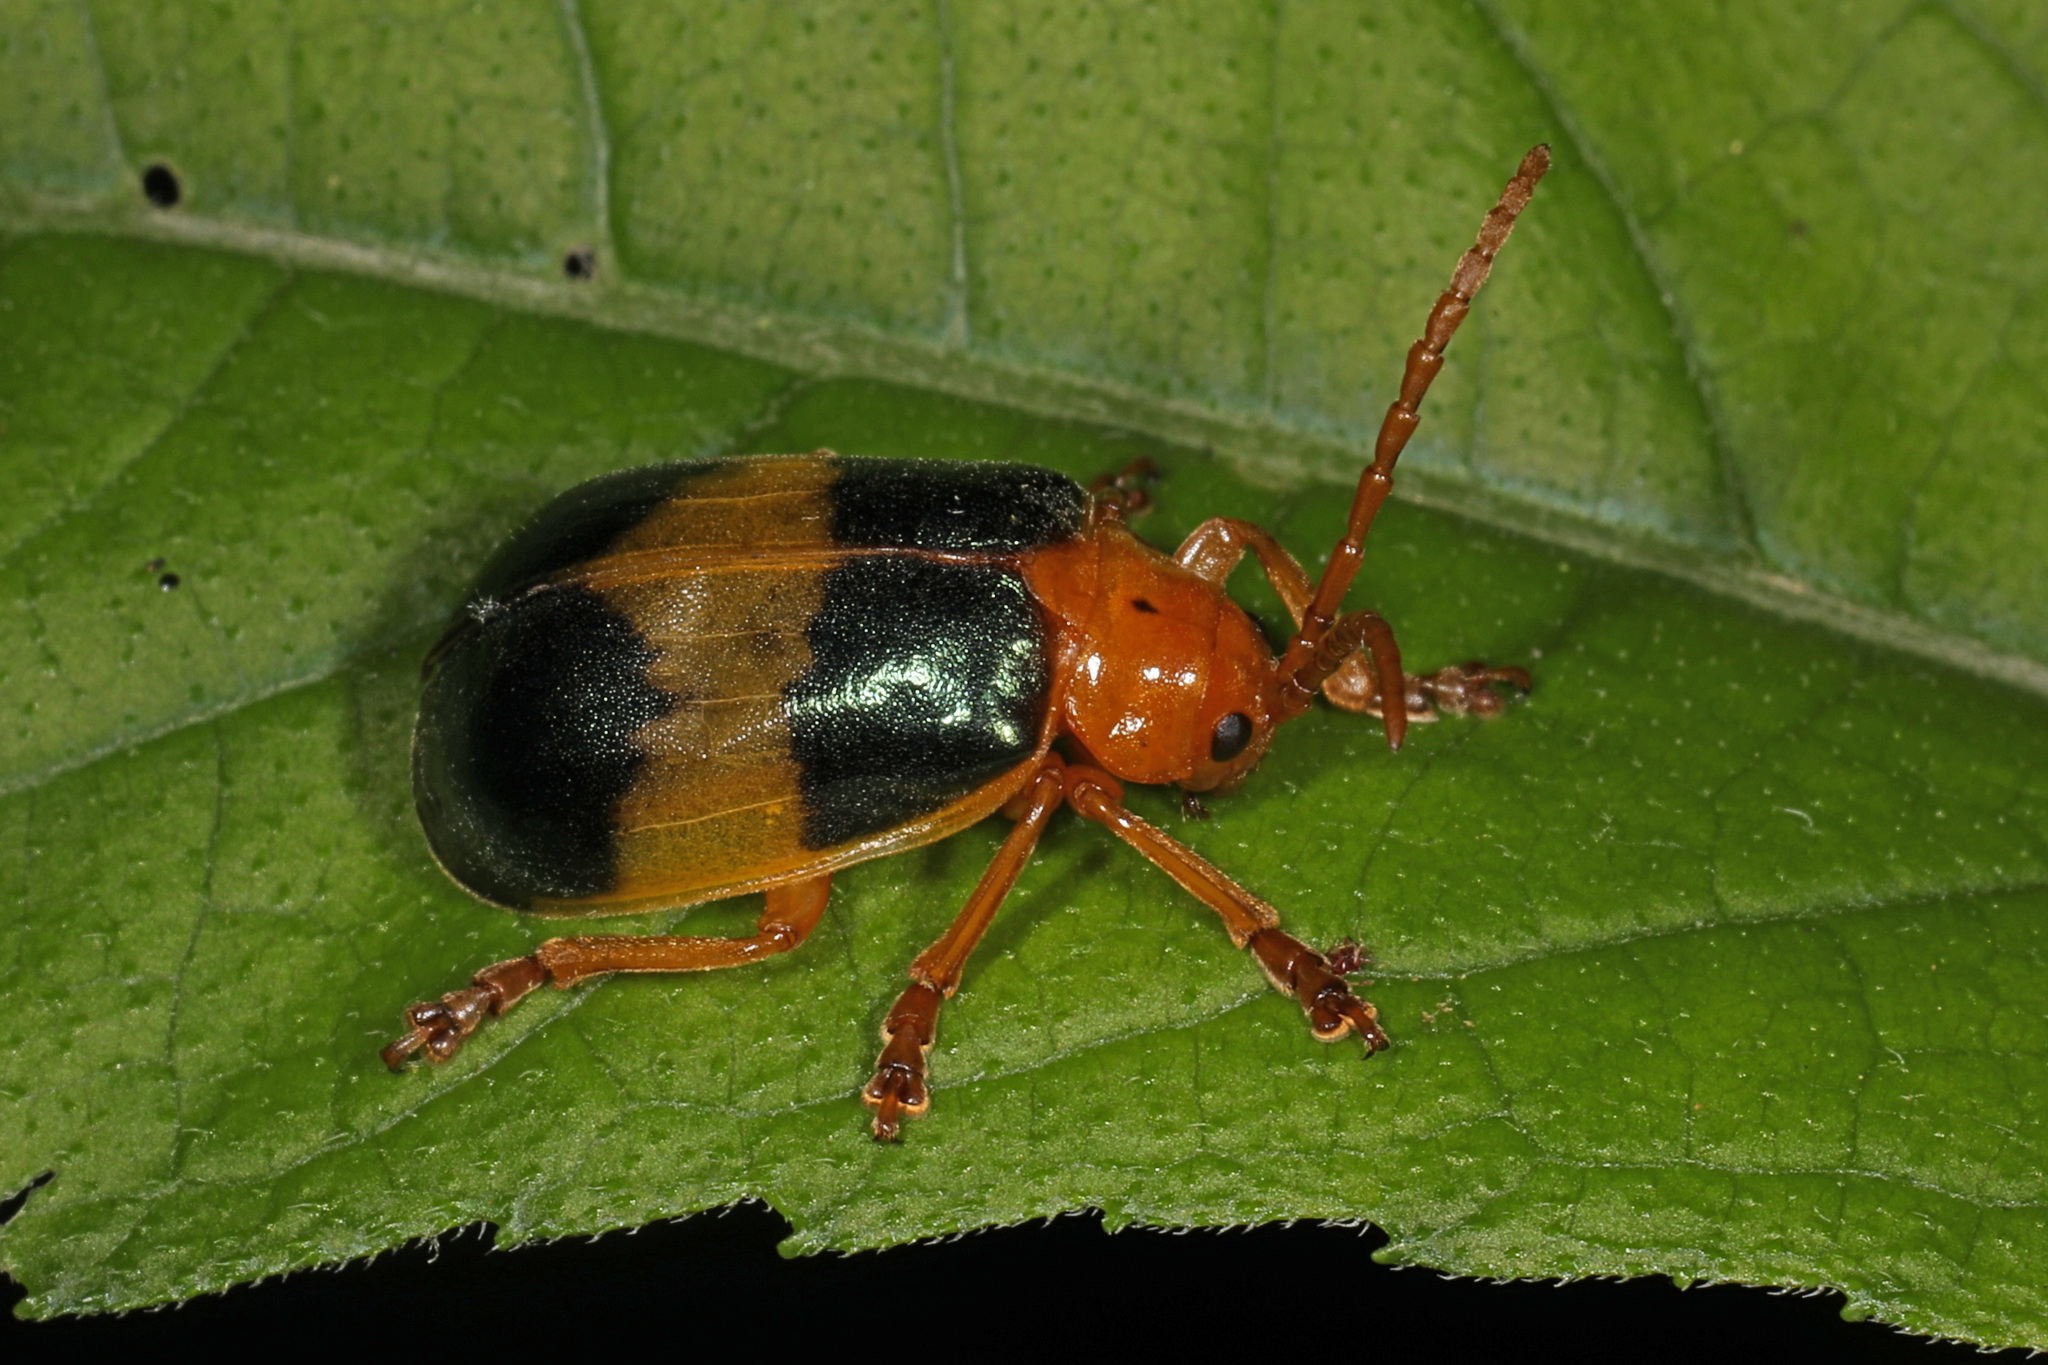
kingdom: Animalia
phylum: Arthropoda
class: Insecta
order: Coleoptera
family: Chrysomelidae
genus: Monocesta
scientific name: Monocesta coryli
